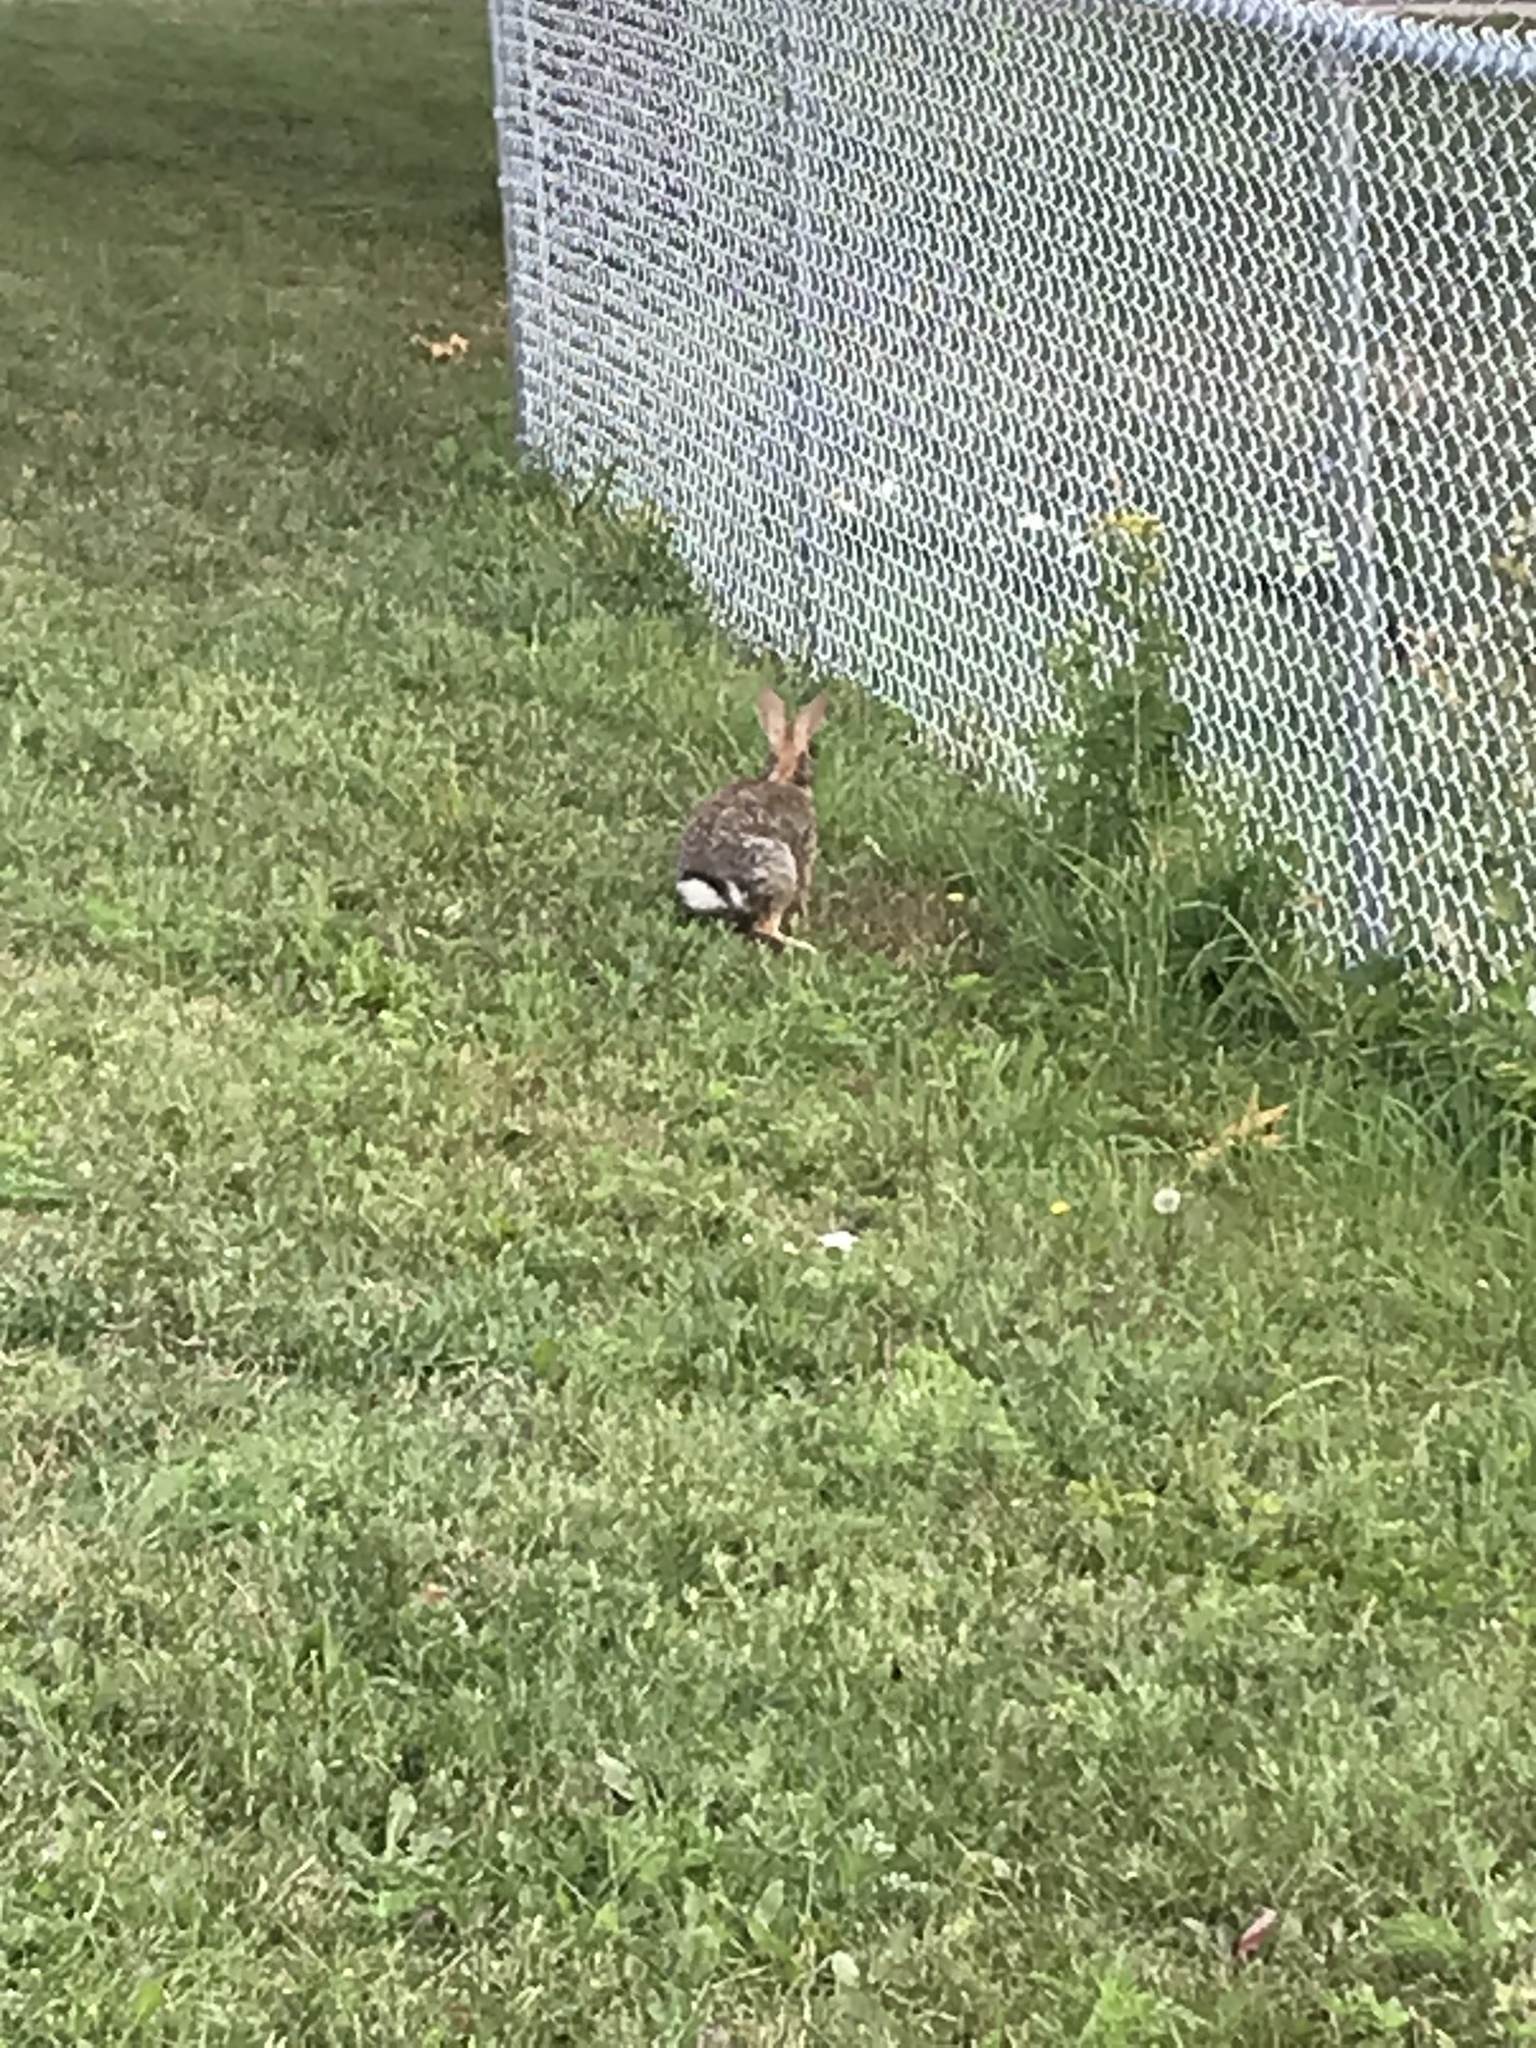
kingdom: Animalia
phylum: Chordata
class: Mammalia
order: Lagomorpha
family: Leporidae
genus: Sylvilagus
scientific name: Sylvilagus floridanus
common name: Eastern cottontail
